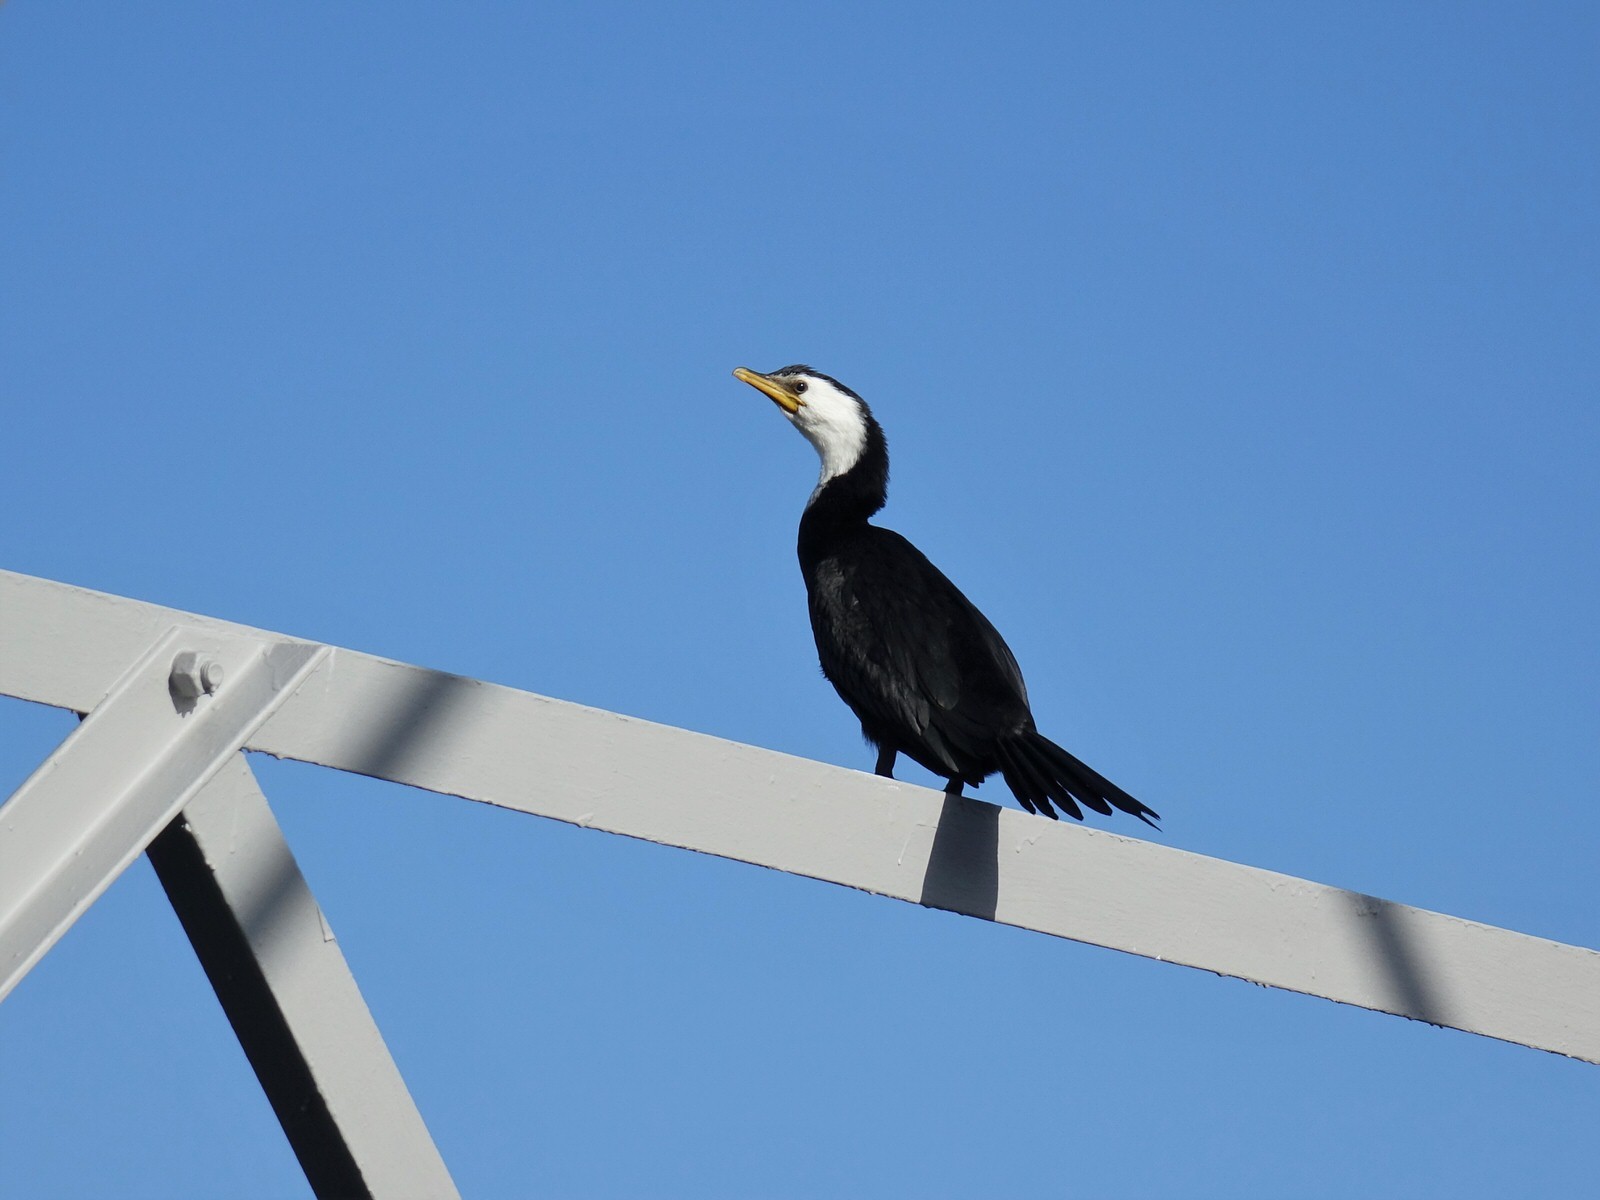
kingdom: Animalia
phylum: Chordata
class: Aves
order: Suliformes
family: Phalacrocoracidae
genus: Microcarbo
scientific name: Microcarbo melanoleucos
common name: Little pied cormorant
